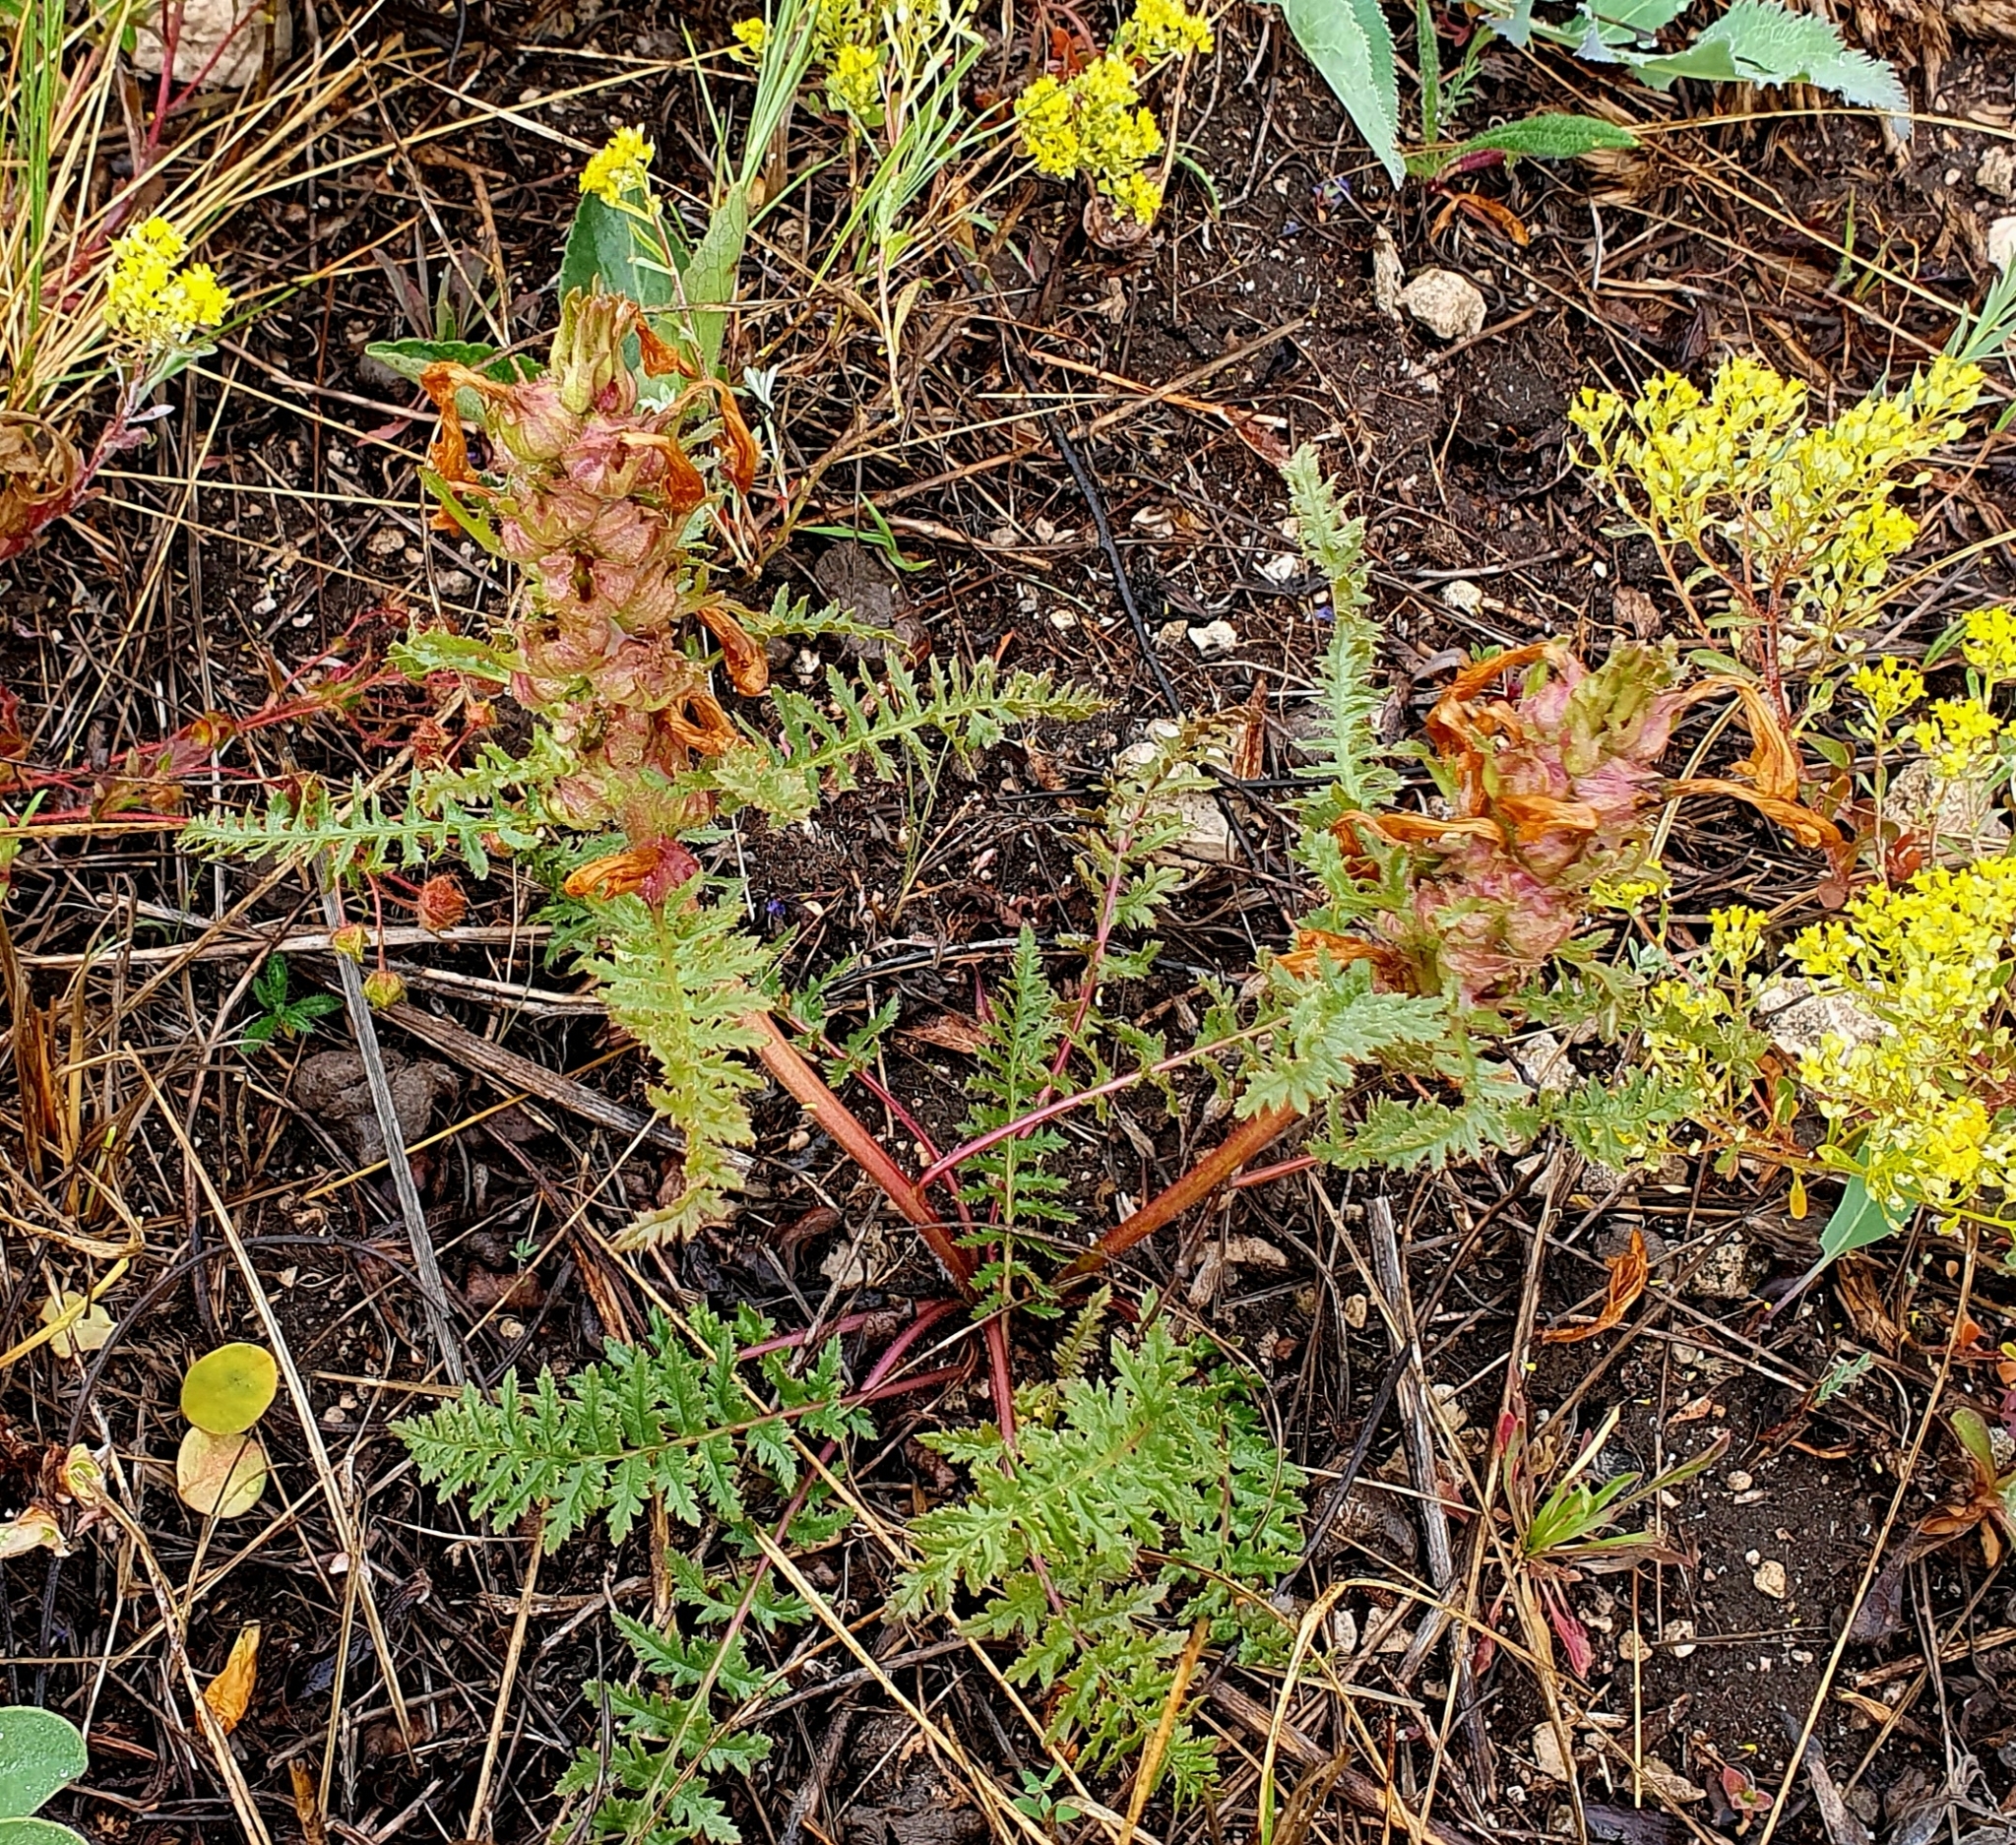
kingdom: Plantae
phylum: Tracheophyta
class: Magnoliopsida
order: Lamiales
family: Orobanchaceae
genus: Pedicularis
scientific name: Pedicularis dasystachys
